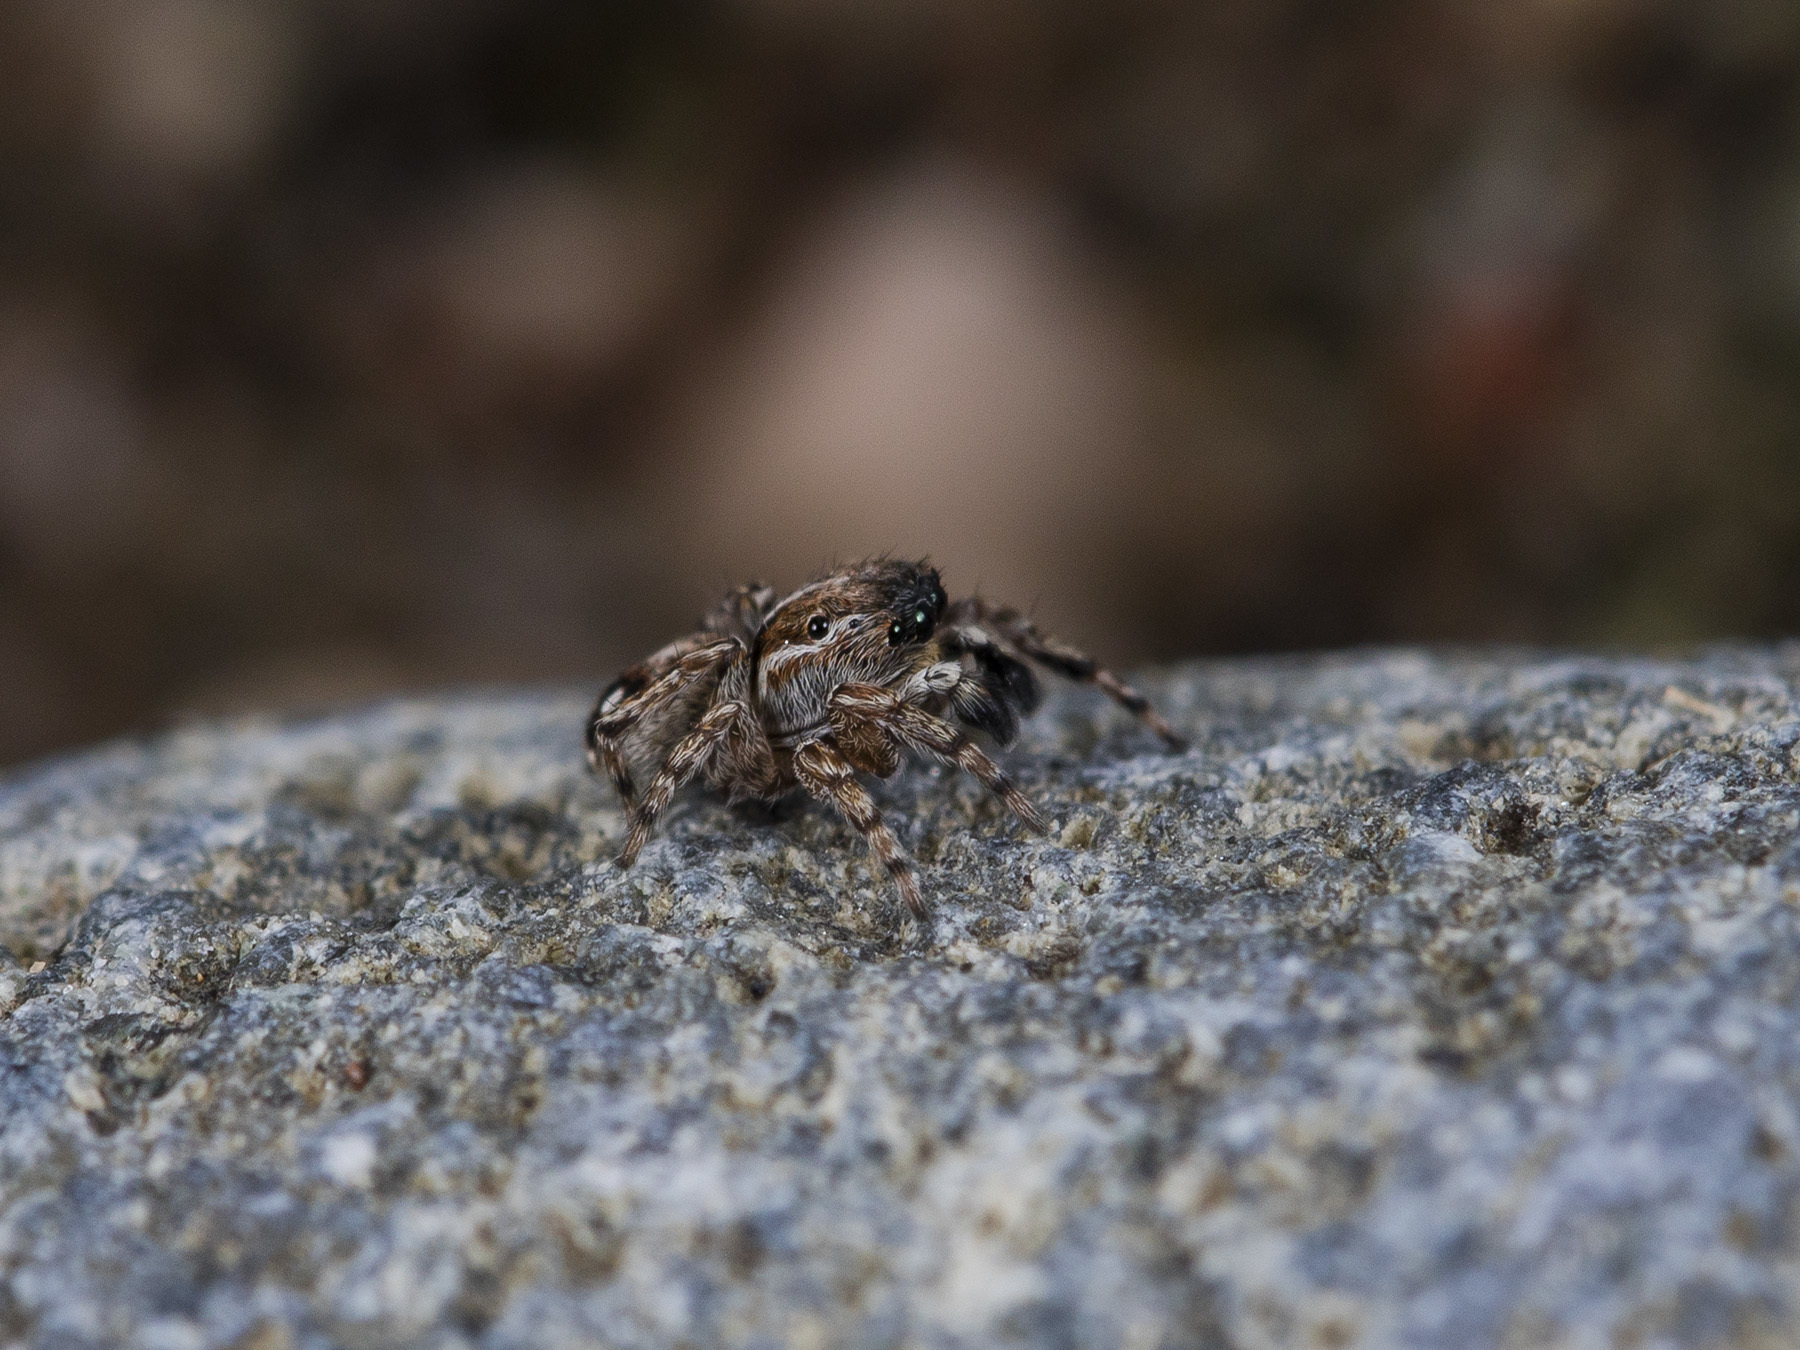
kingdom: Animalia
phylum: Arthropoda
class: Arachnida
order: Araneae
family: Salticidae
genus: Attulus
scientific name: Attulus zimmermanni
